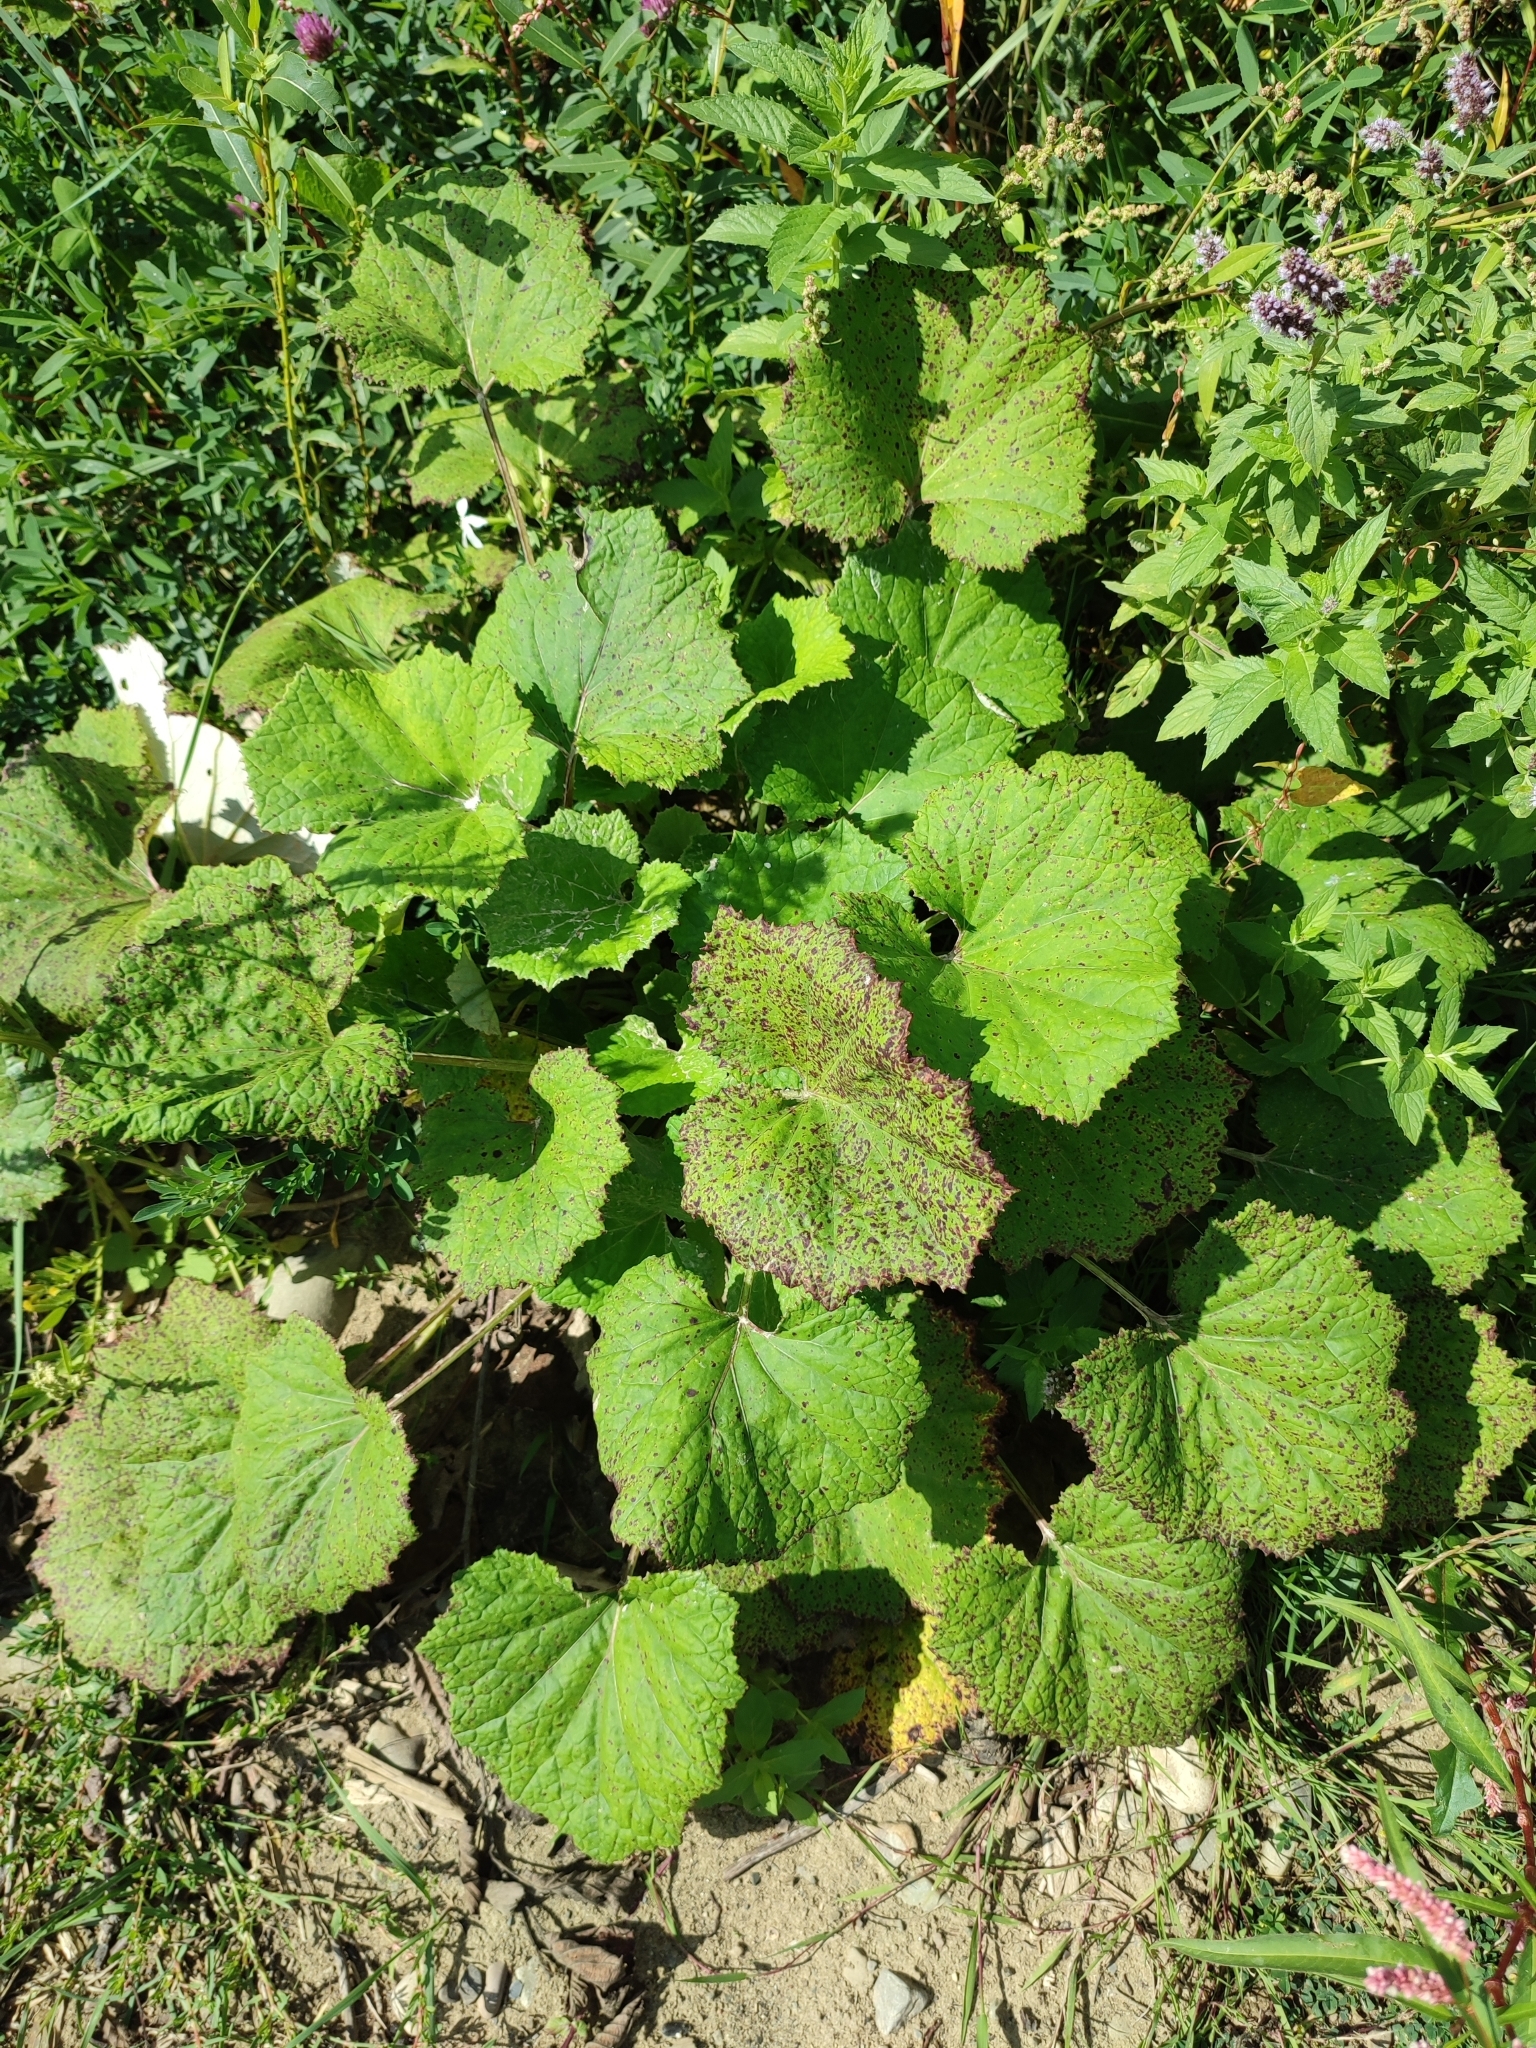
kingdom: Plantae
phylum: Tracheophyta
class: Magnoliopsida
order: Asterales
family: Asteraceae
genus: Tussilago
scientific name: Tussilago farfara
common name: Coltsfoot
